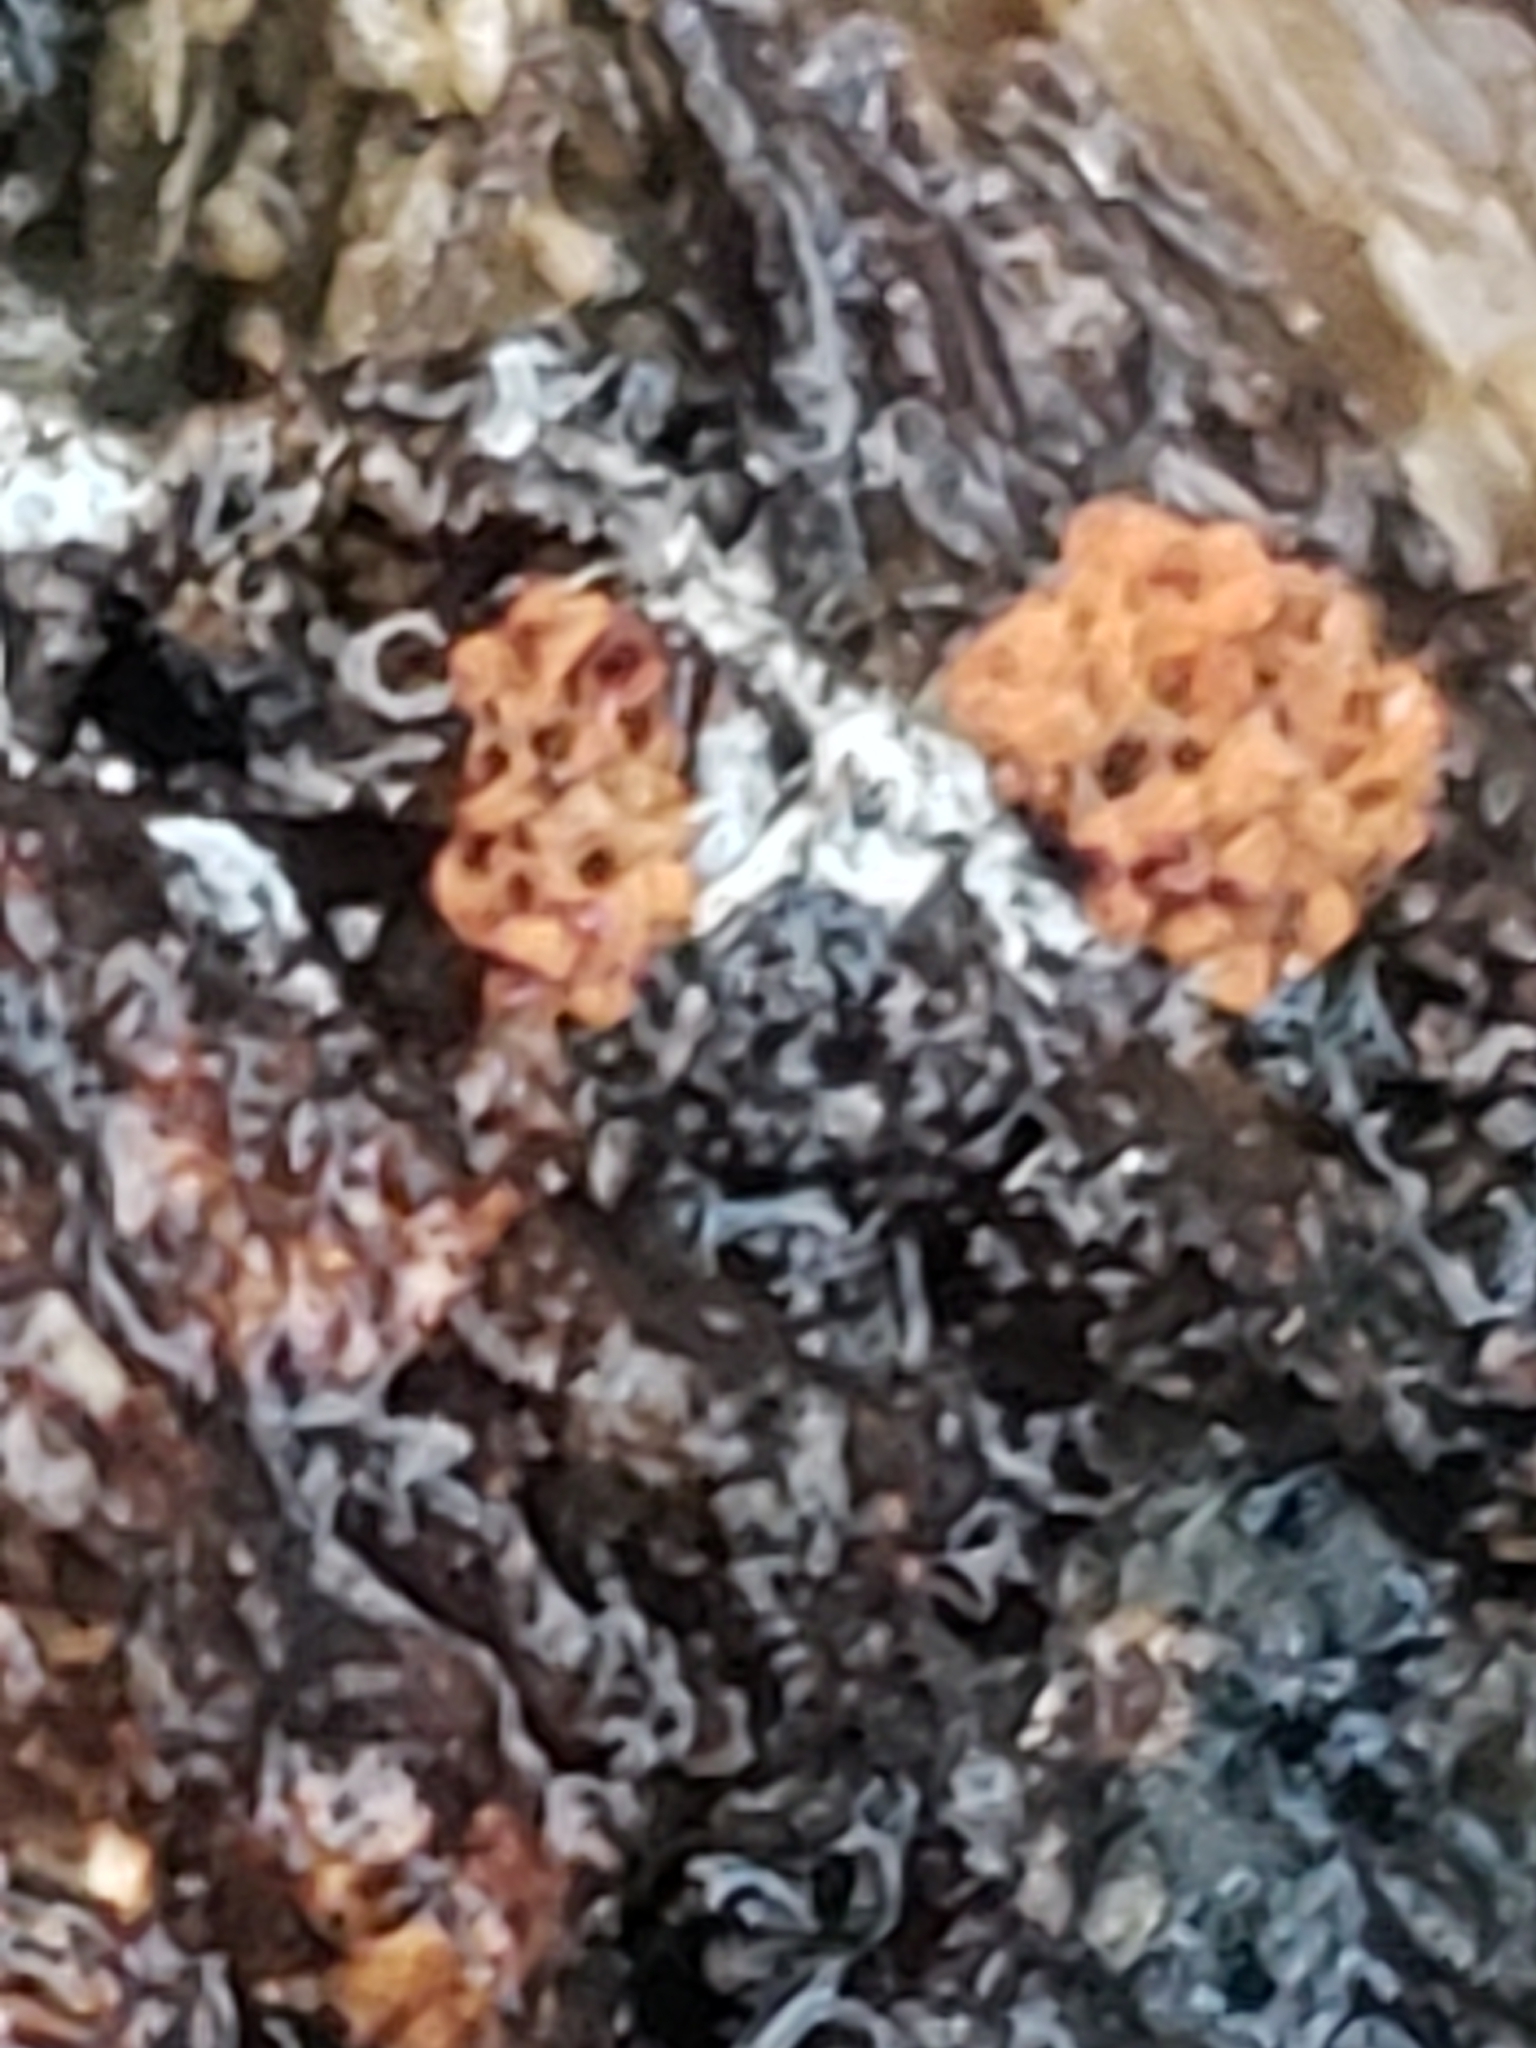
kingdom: Protozoa
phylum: Mycetozoa
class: Myxomycetes
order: Trichiales
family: Trichiaceae
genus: Metatrichia
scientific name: Metatrichia vesparia
